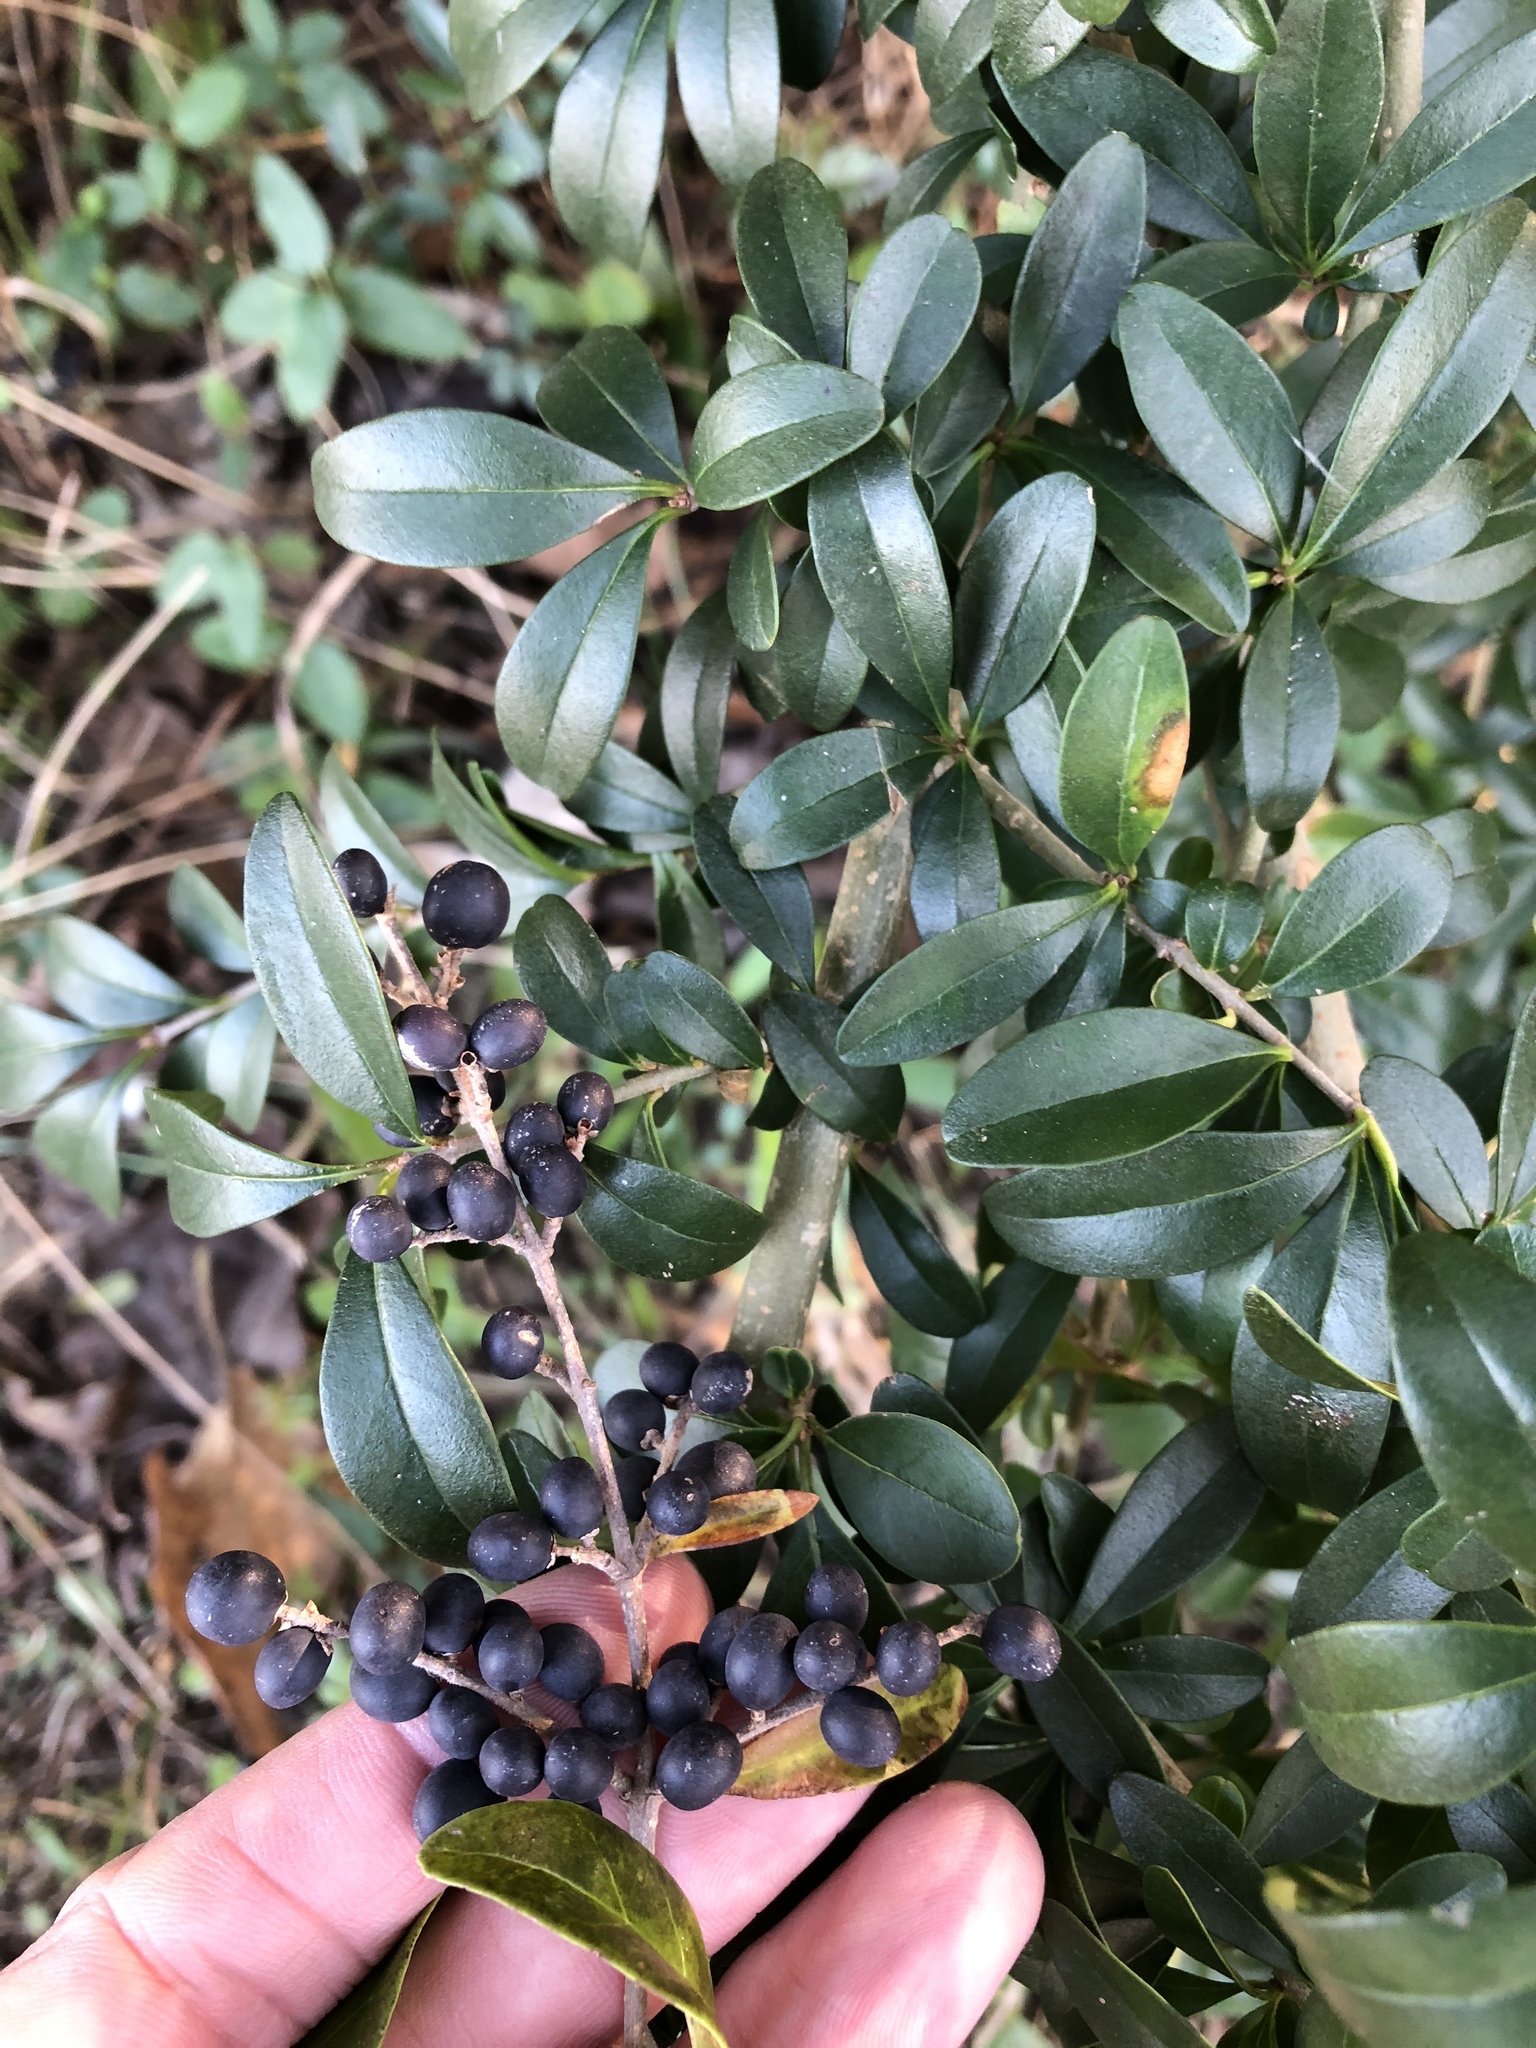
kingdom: Plantae
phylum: Tracheophyta
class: Magnoliopsida
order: Lamiales
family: Oleaceae
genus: Ligustrum
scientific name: Ligustrum quihoui
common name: Waxyleaf privet
